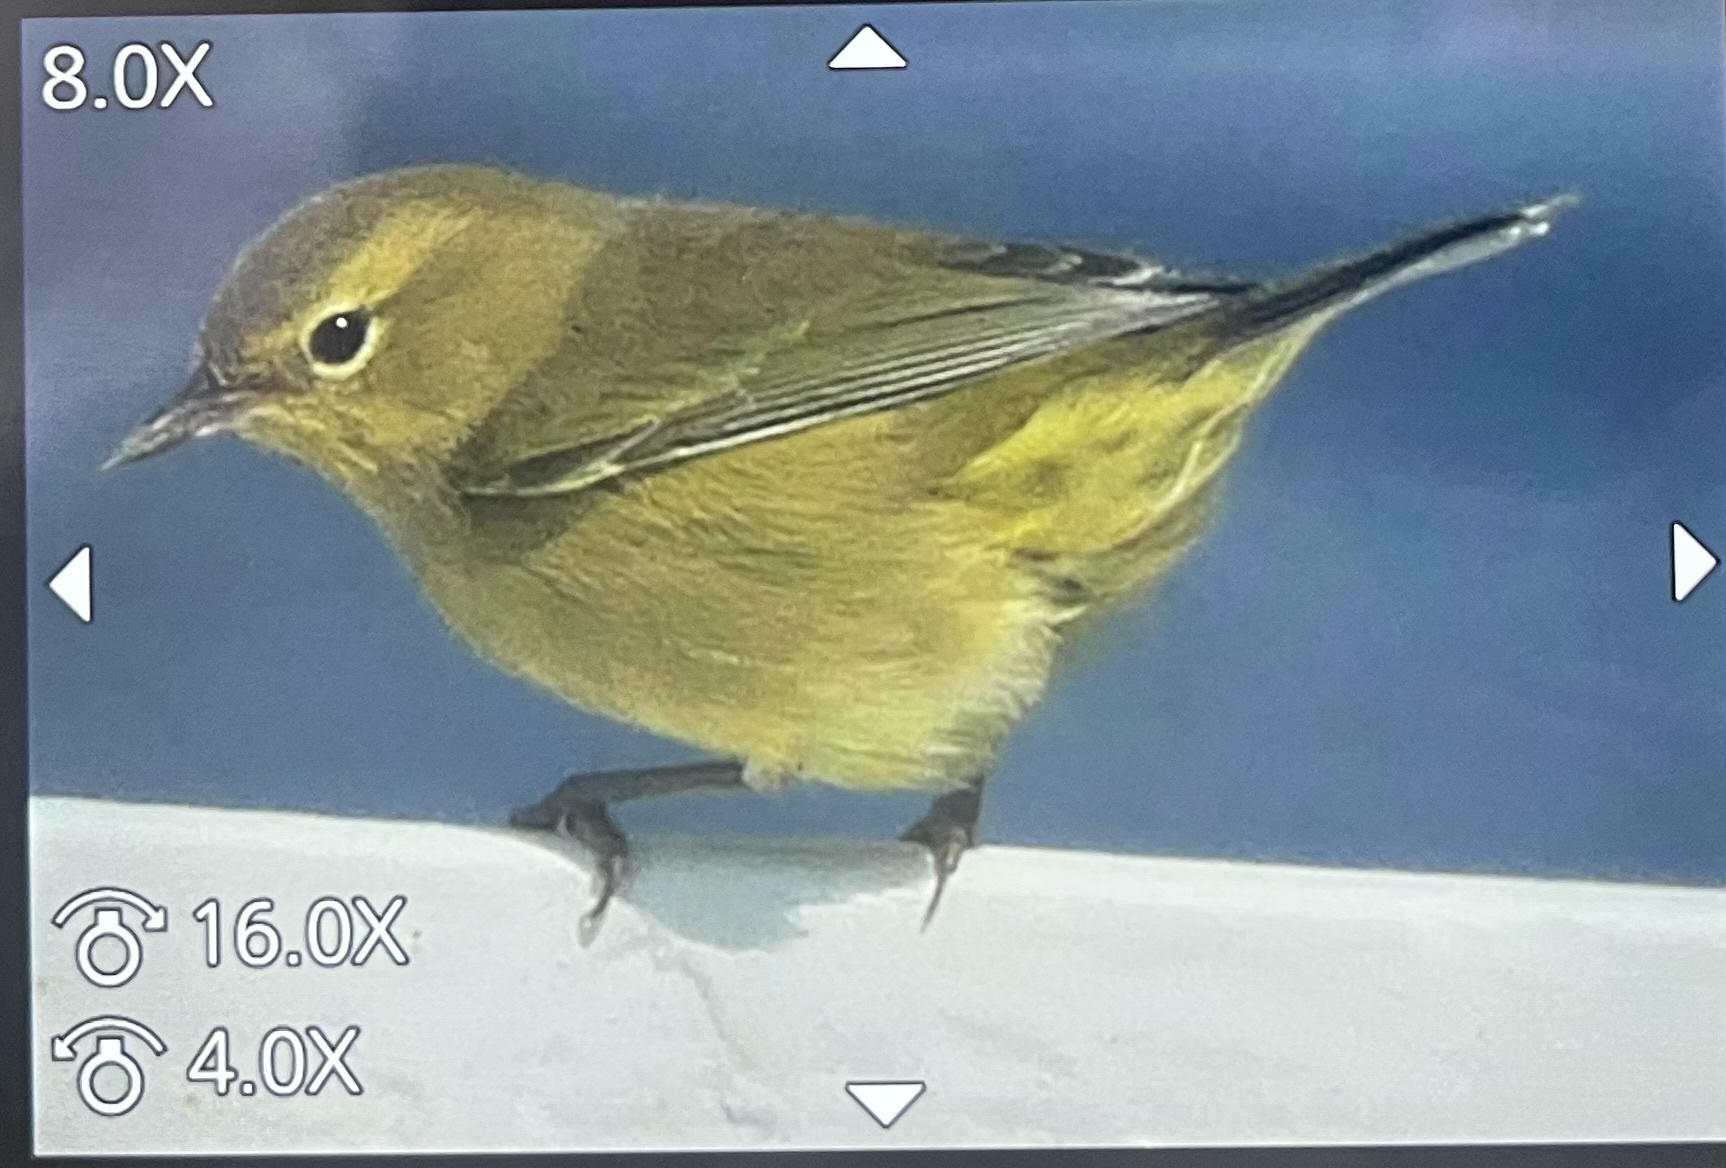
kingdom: Animalia
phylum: Chordata
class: Aves
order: Passeriformes
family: Parulidae
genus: Leiothlypis
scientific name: Leiothlypis celata
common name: Orange-crowned warbler
